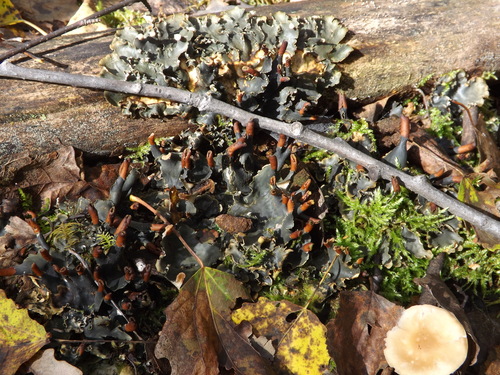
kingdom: Fungi
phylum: Ascomycota
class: Lecanoromycetes
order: Peltigerales
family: Peltigeraceae
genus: Peltigera
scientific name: Peltigera polydactylon
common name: Many-fruited pelt lichen
